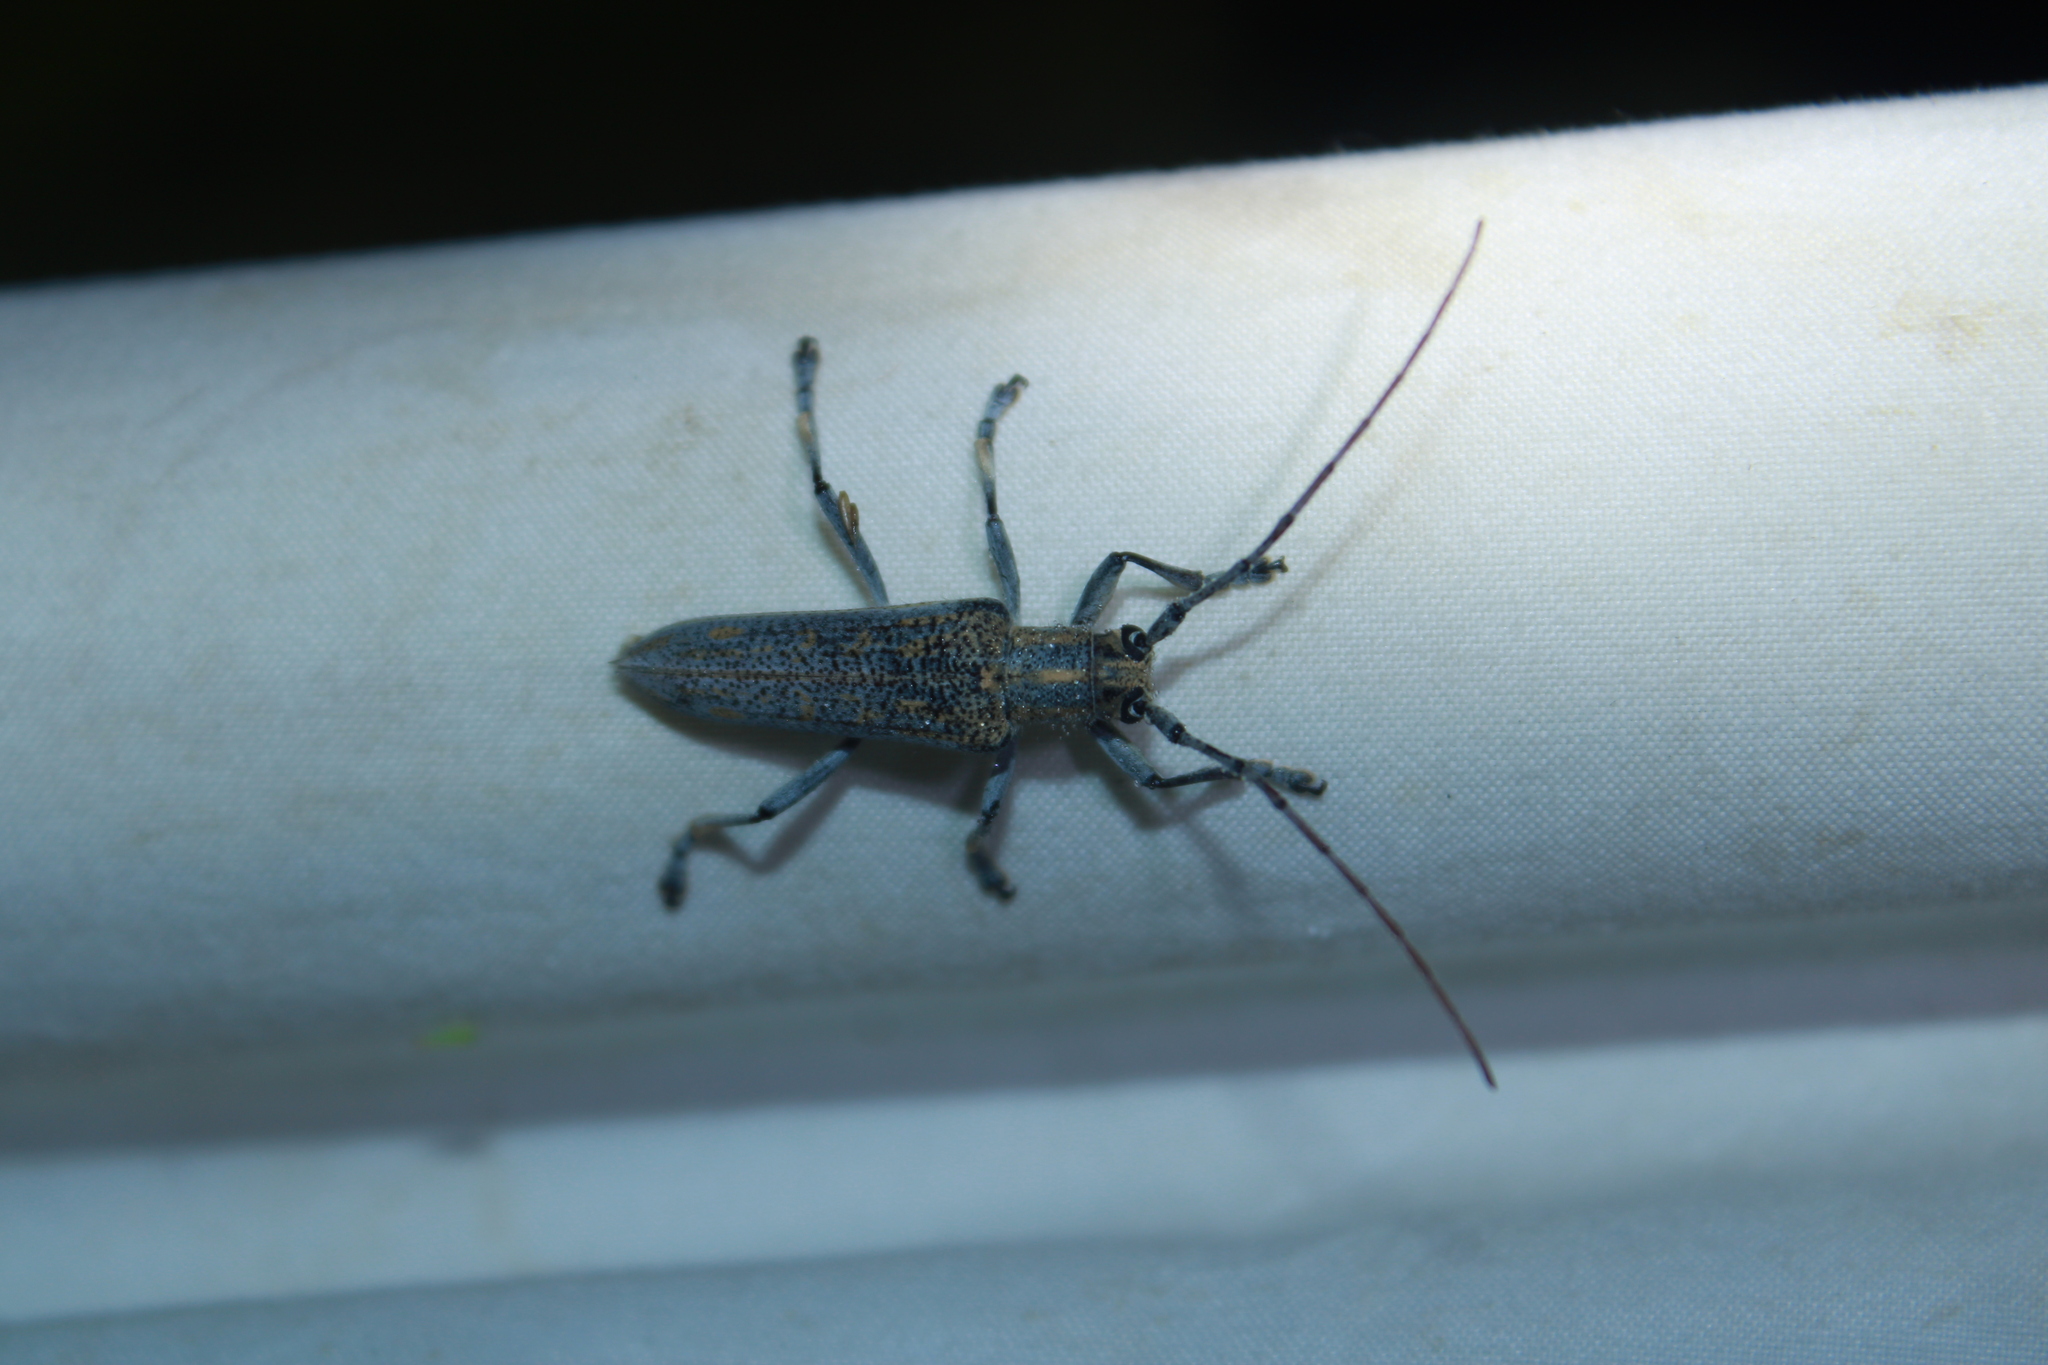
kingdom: Animalia
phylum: Arthropoda
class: Insecta
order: Coleoptera
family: Cerambycidae
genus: Saperda
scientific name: Saperda calcarata
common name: Poplar borer
